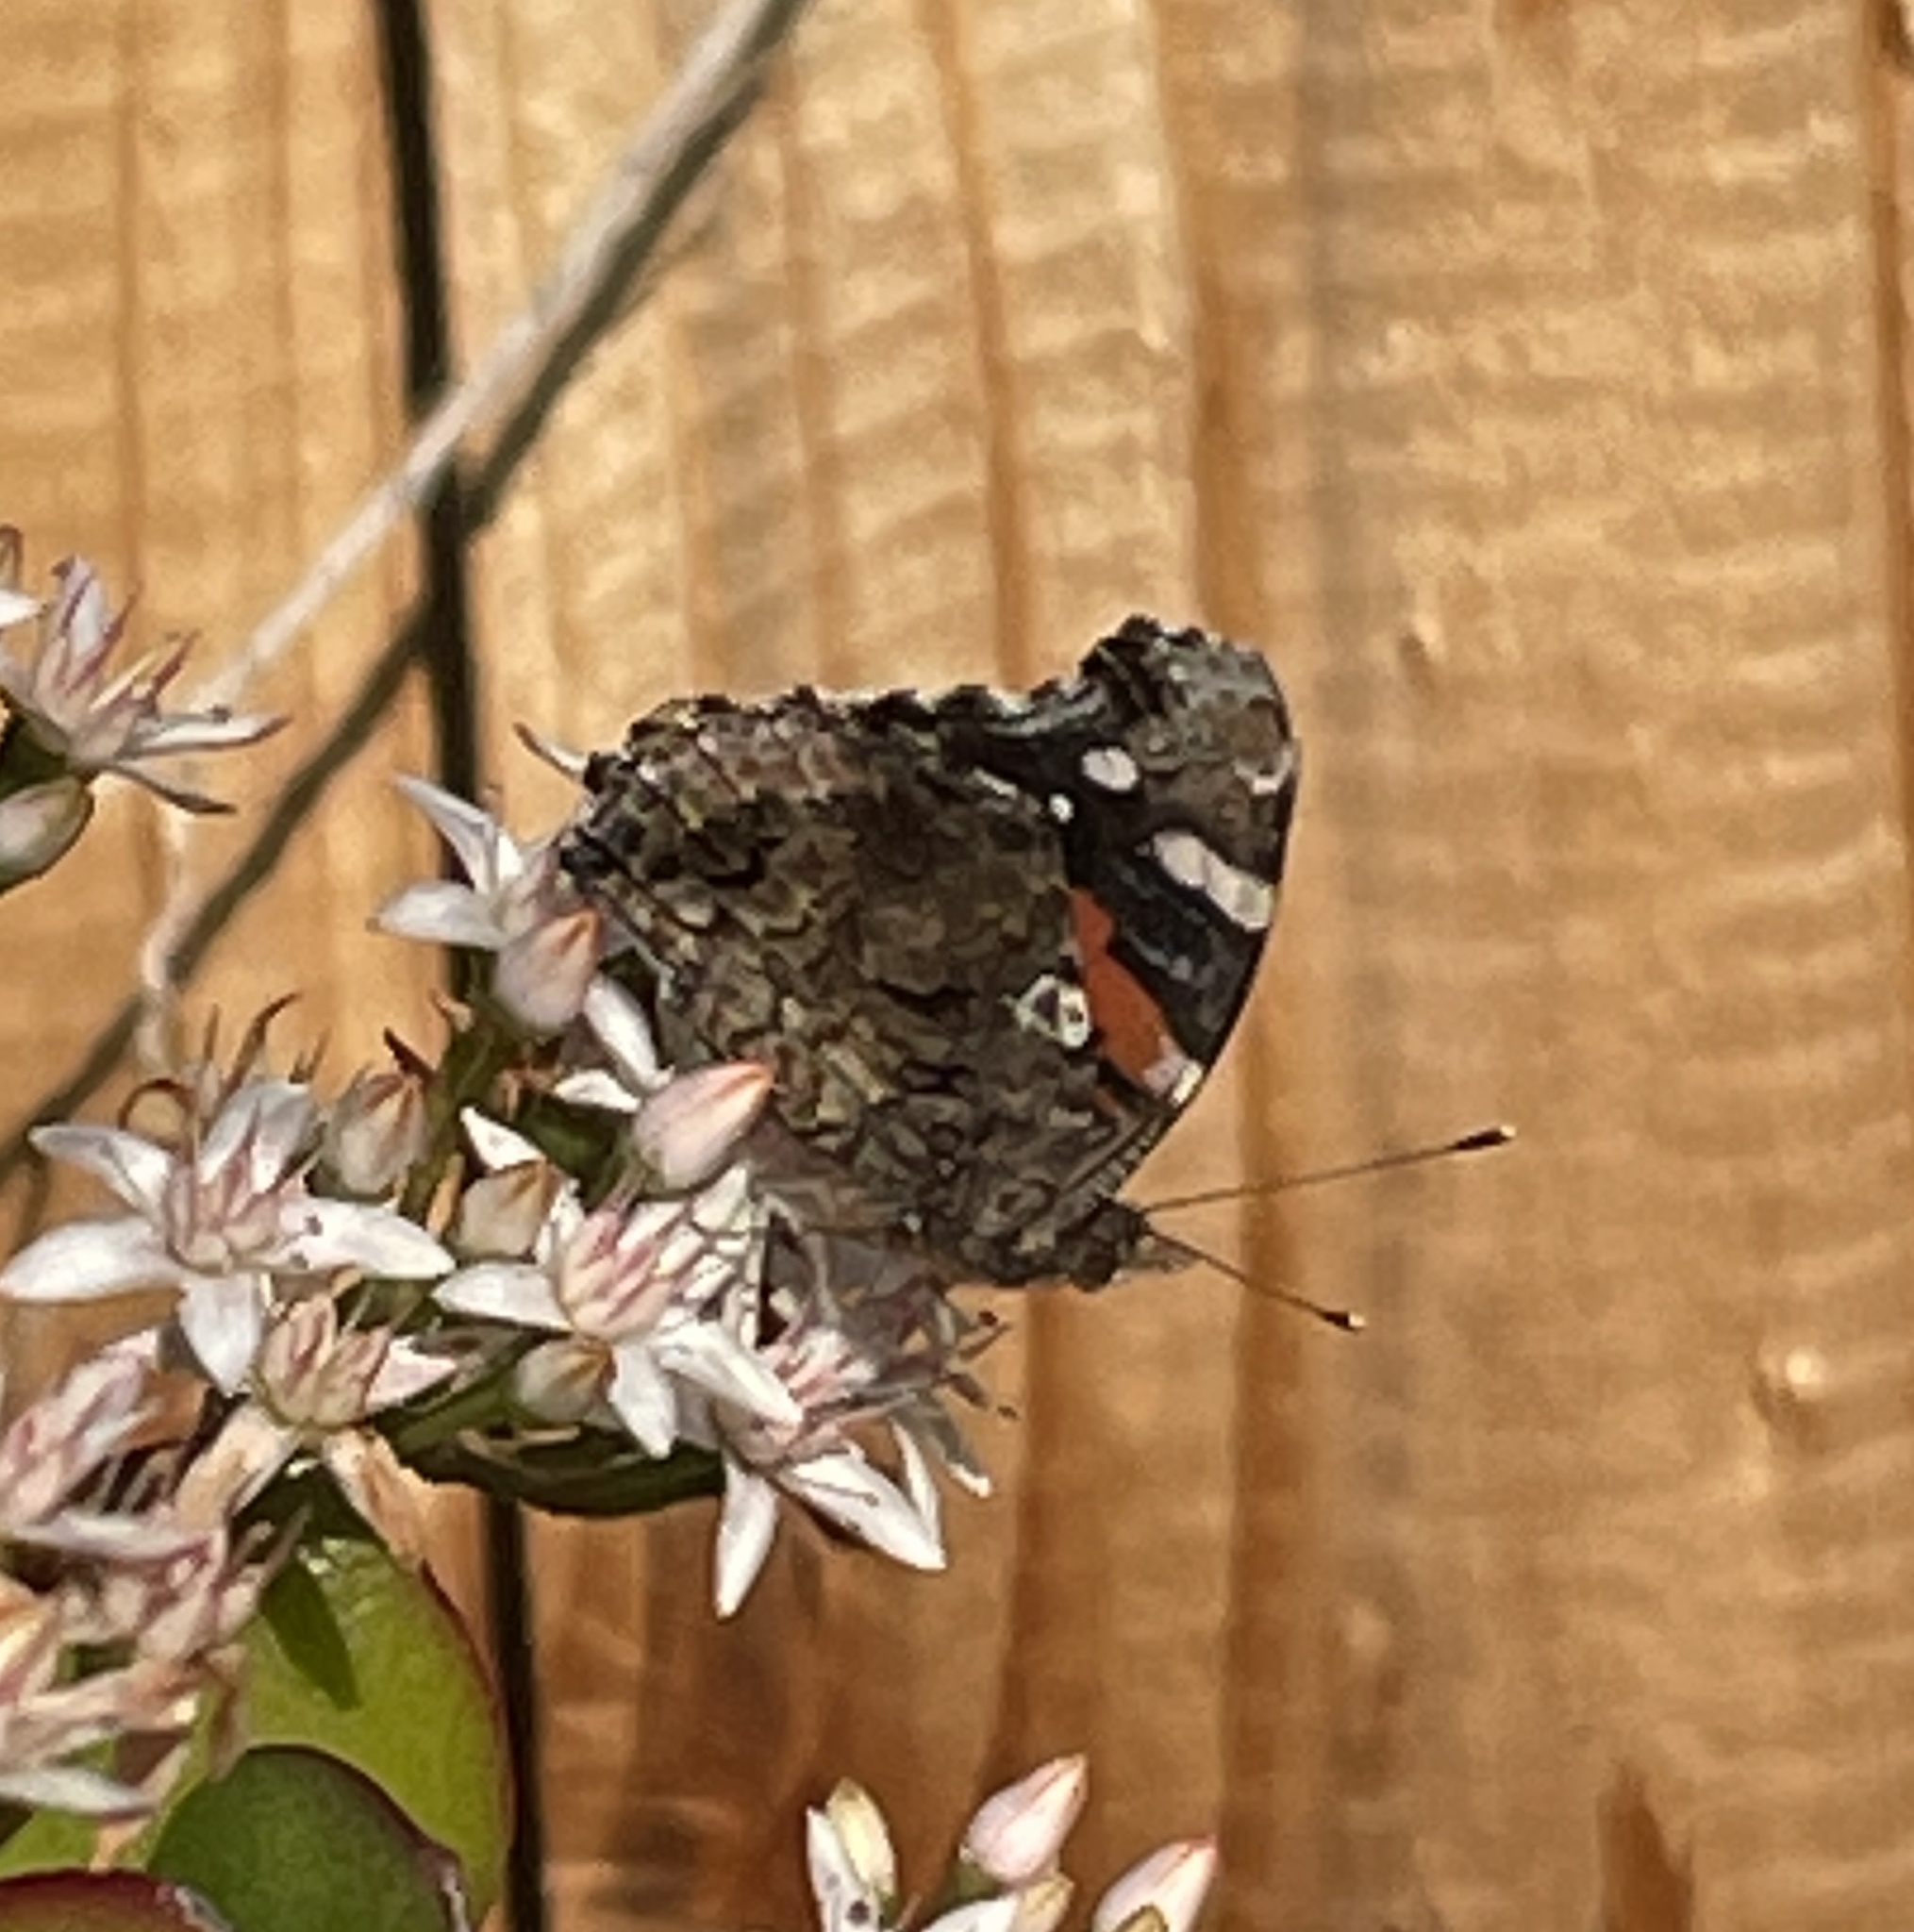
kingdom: Animalia
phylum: Arthropoda
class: Insecta
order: Lepidoptera
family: Nymphalidae
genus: Vanessa
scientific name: Vanessa atalanta
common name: Red admiral
